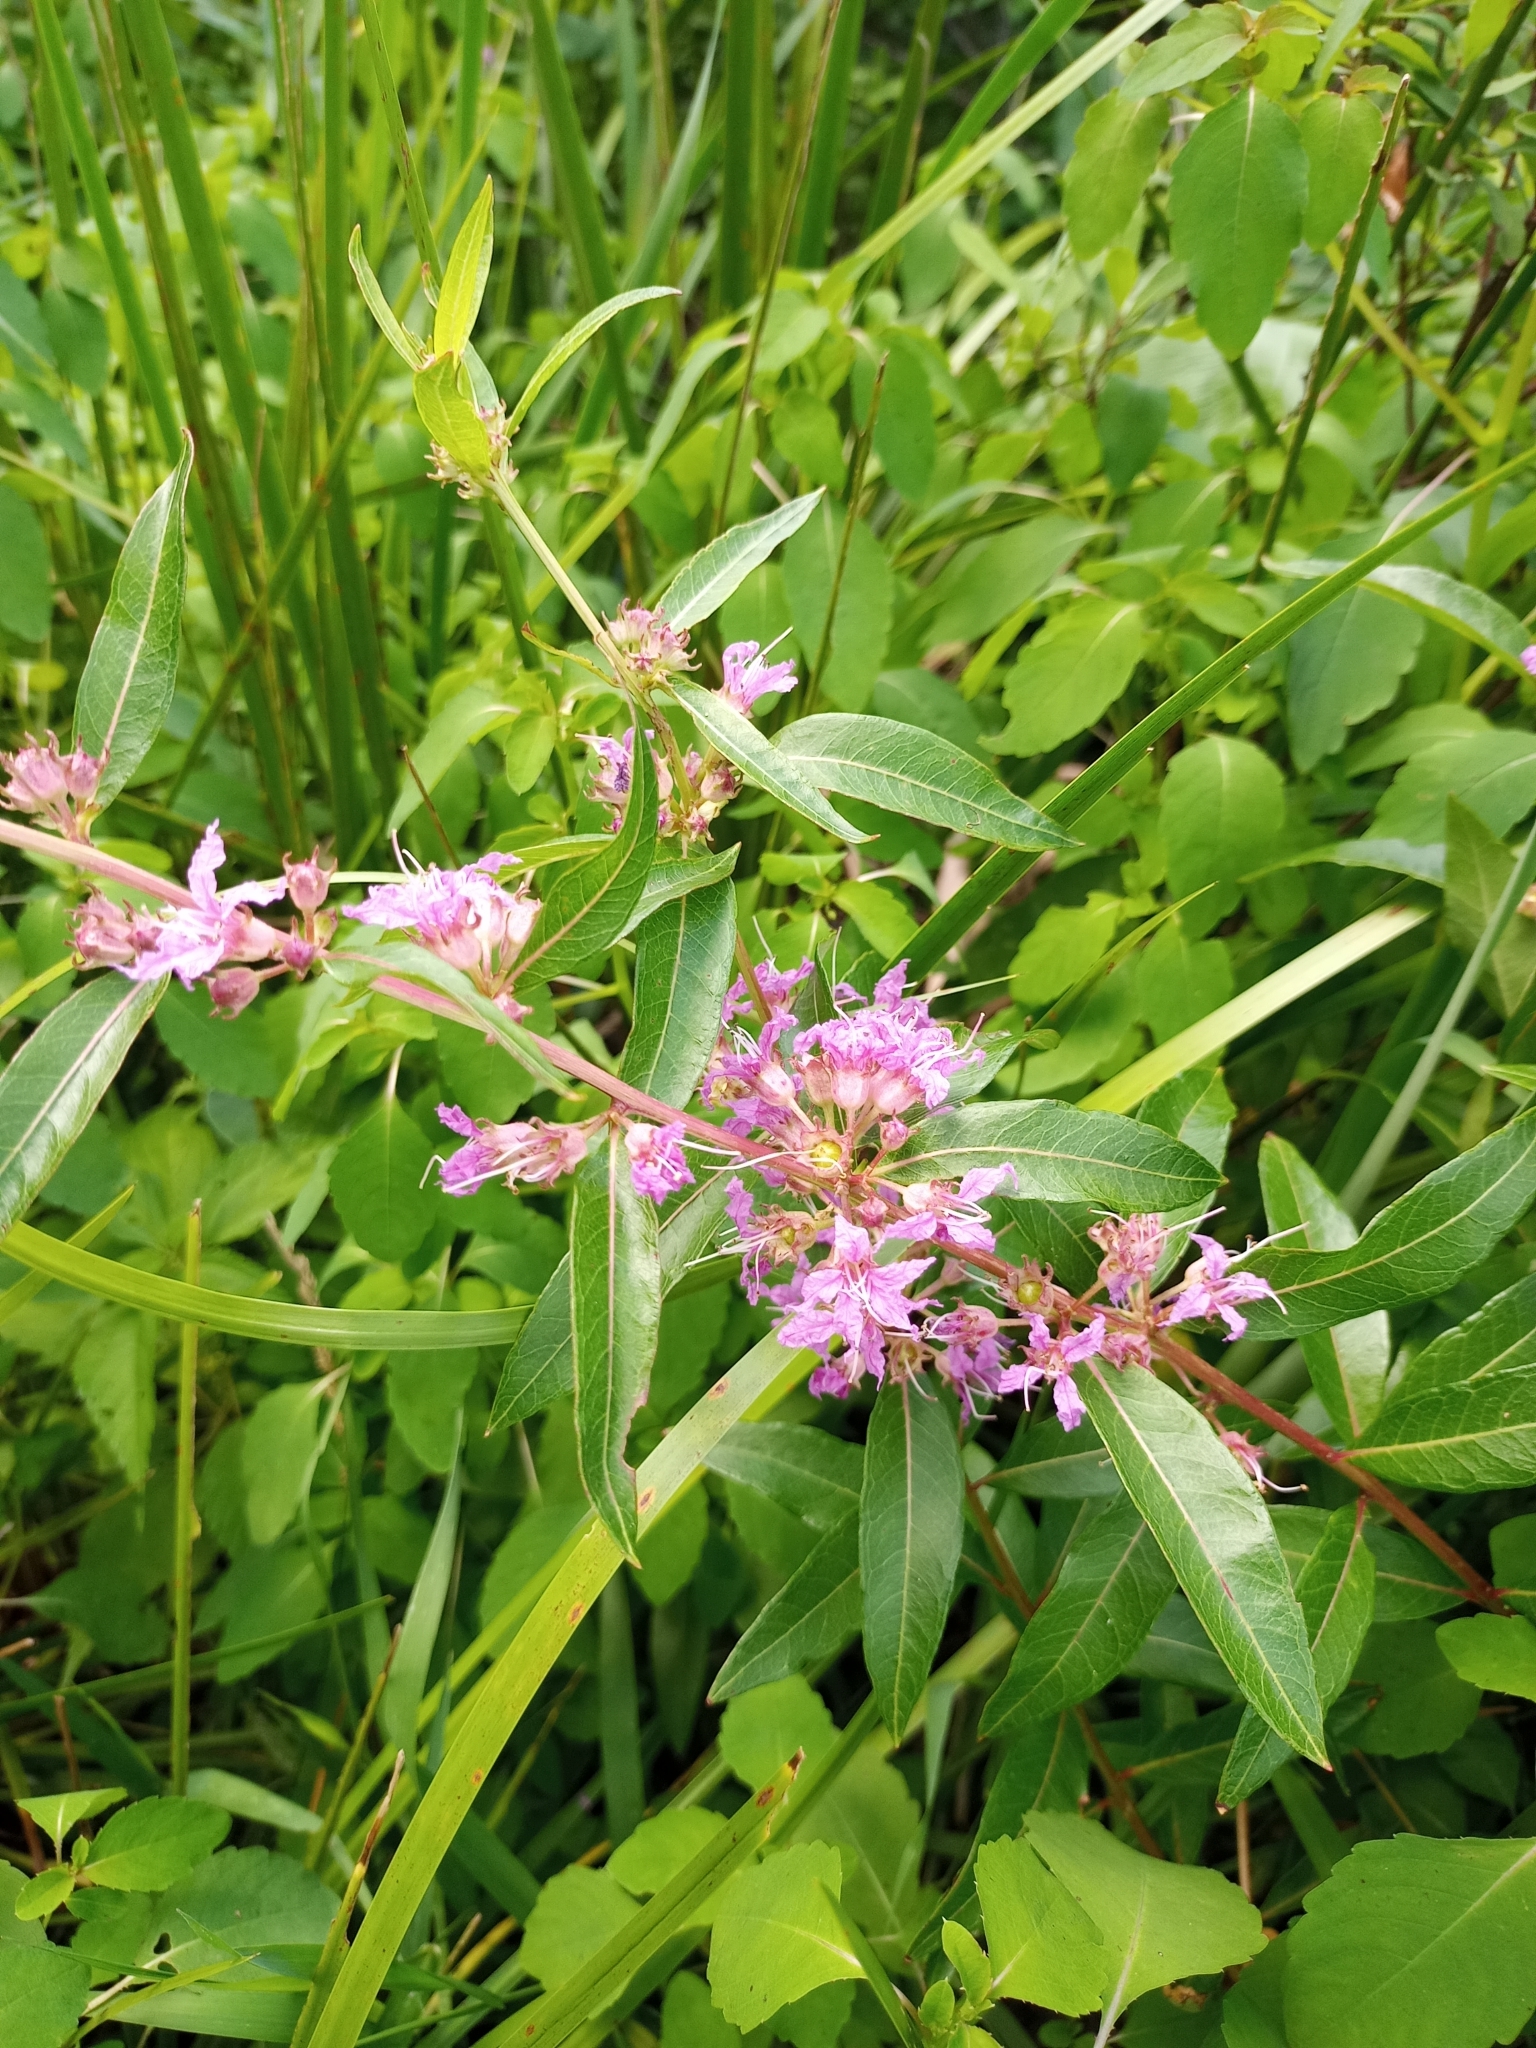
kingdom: Plantae
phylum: Tracheophyta
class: Magnoliopsida
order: Myrtales
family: Lythraceae
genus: Decodon
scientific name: Decodon verticillatus
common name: Hairy swamp loosestrife
